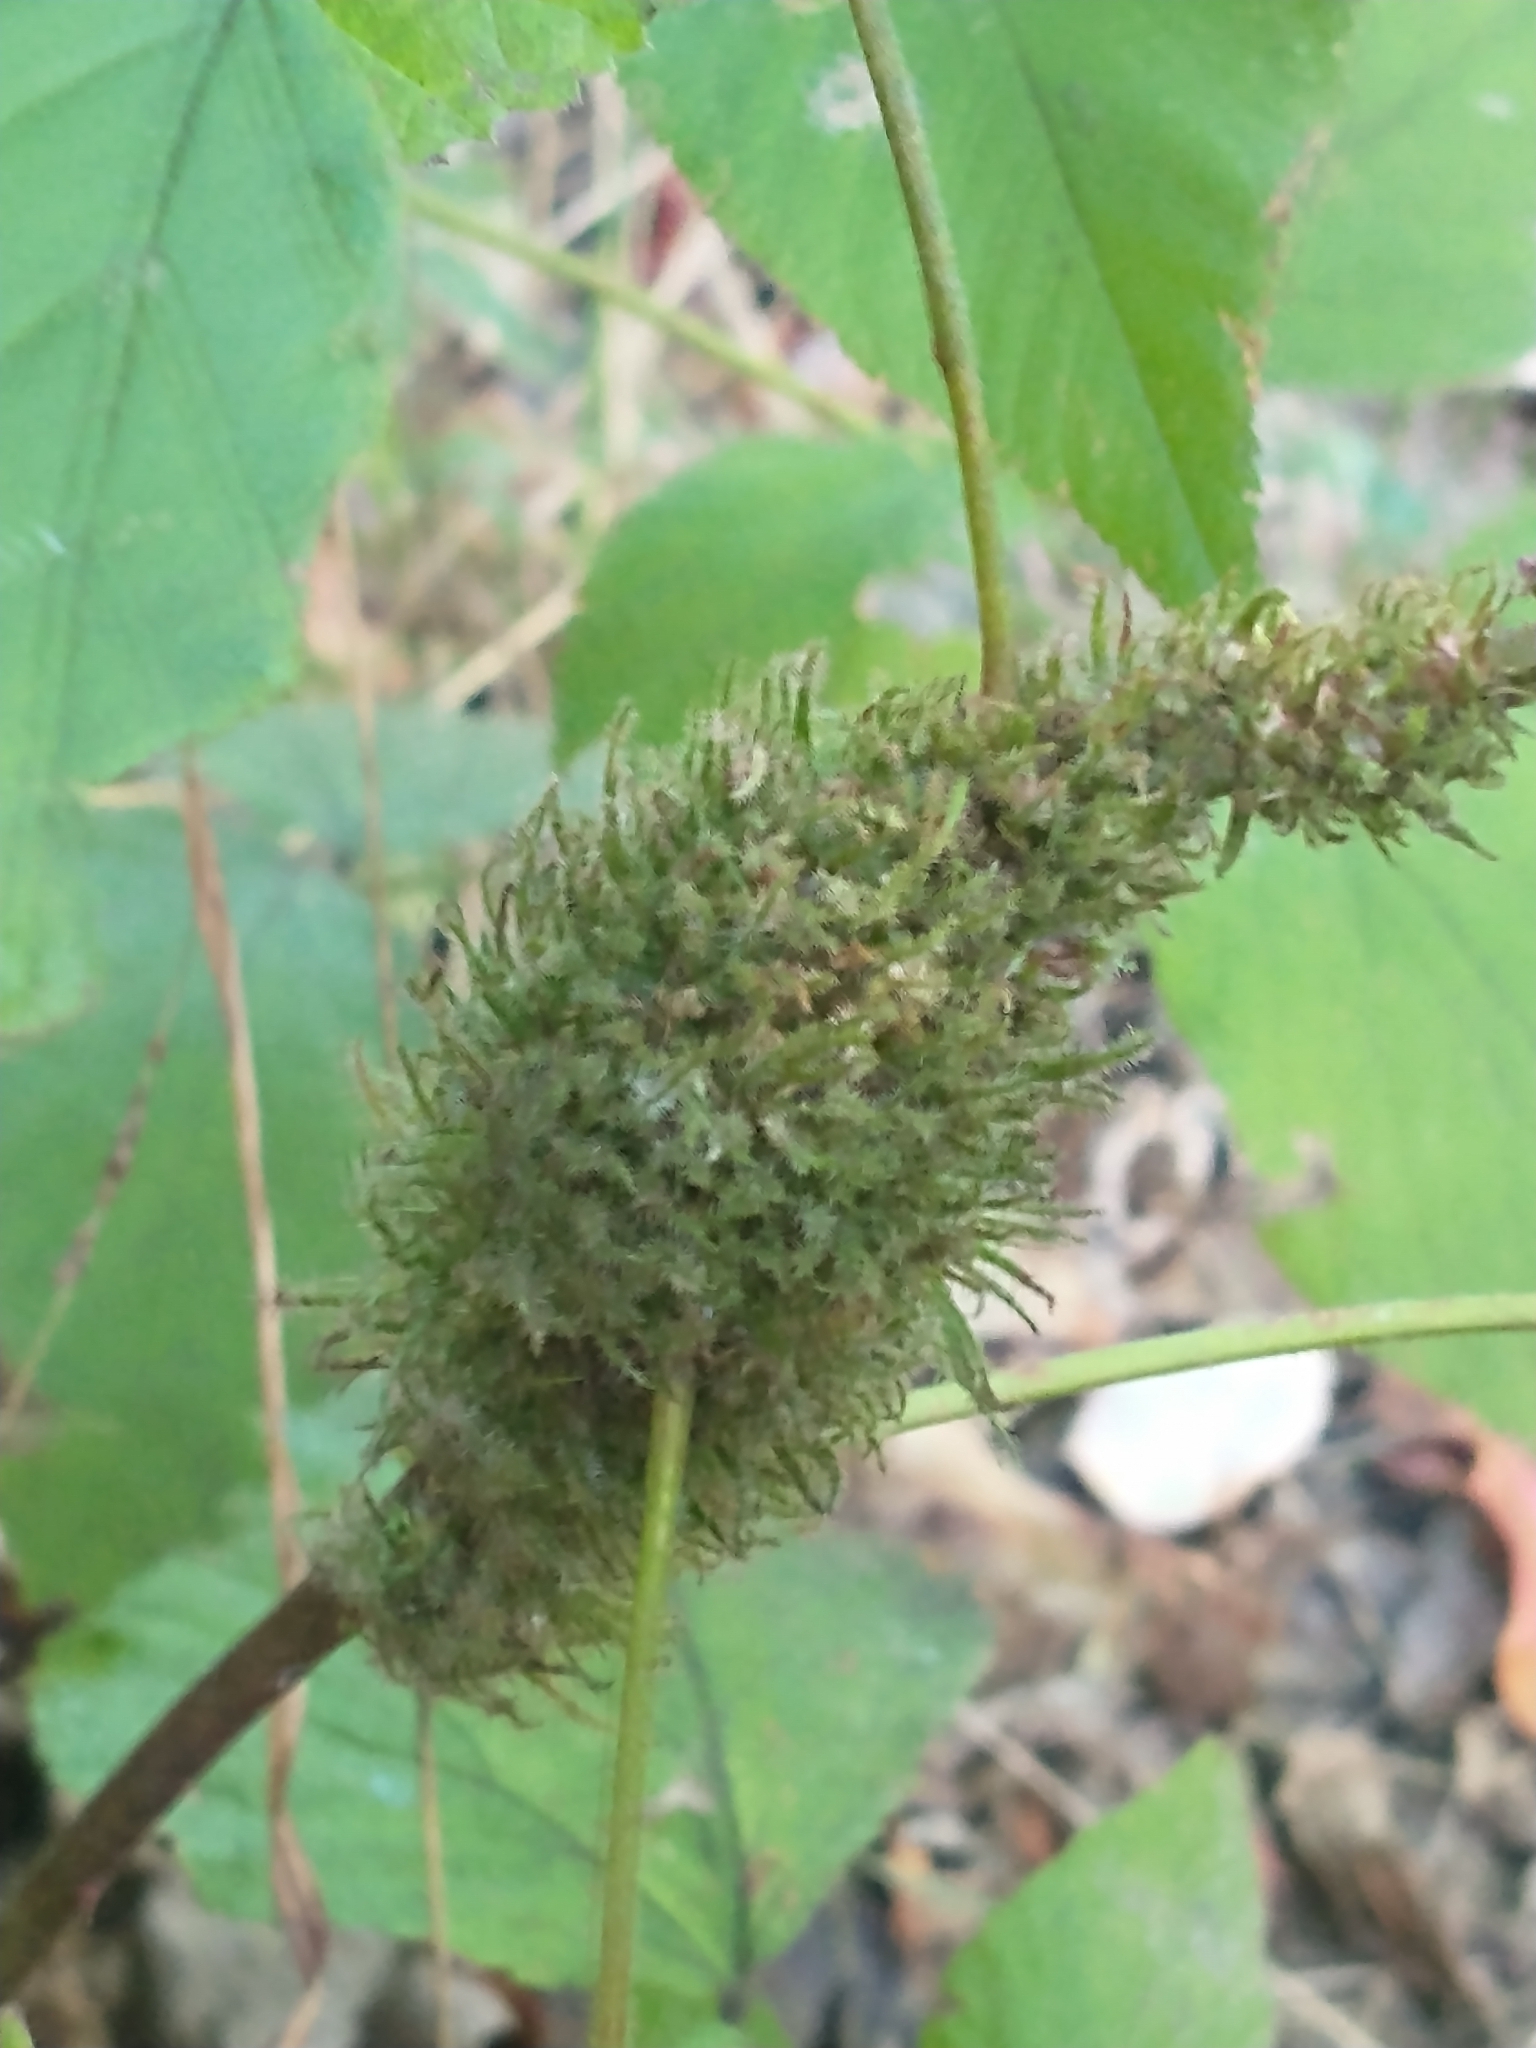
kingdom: Animalia
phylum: Arthropoda
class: Insecta
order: Hymenoptera
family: Cynipidae
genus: Diastrophus
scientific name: Diastrophus
